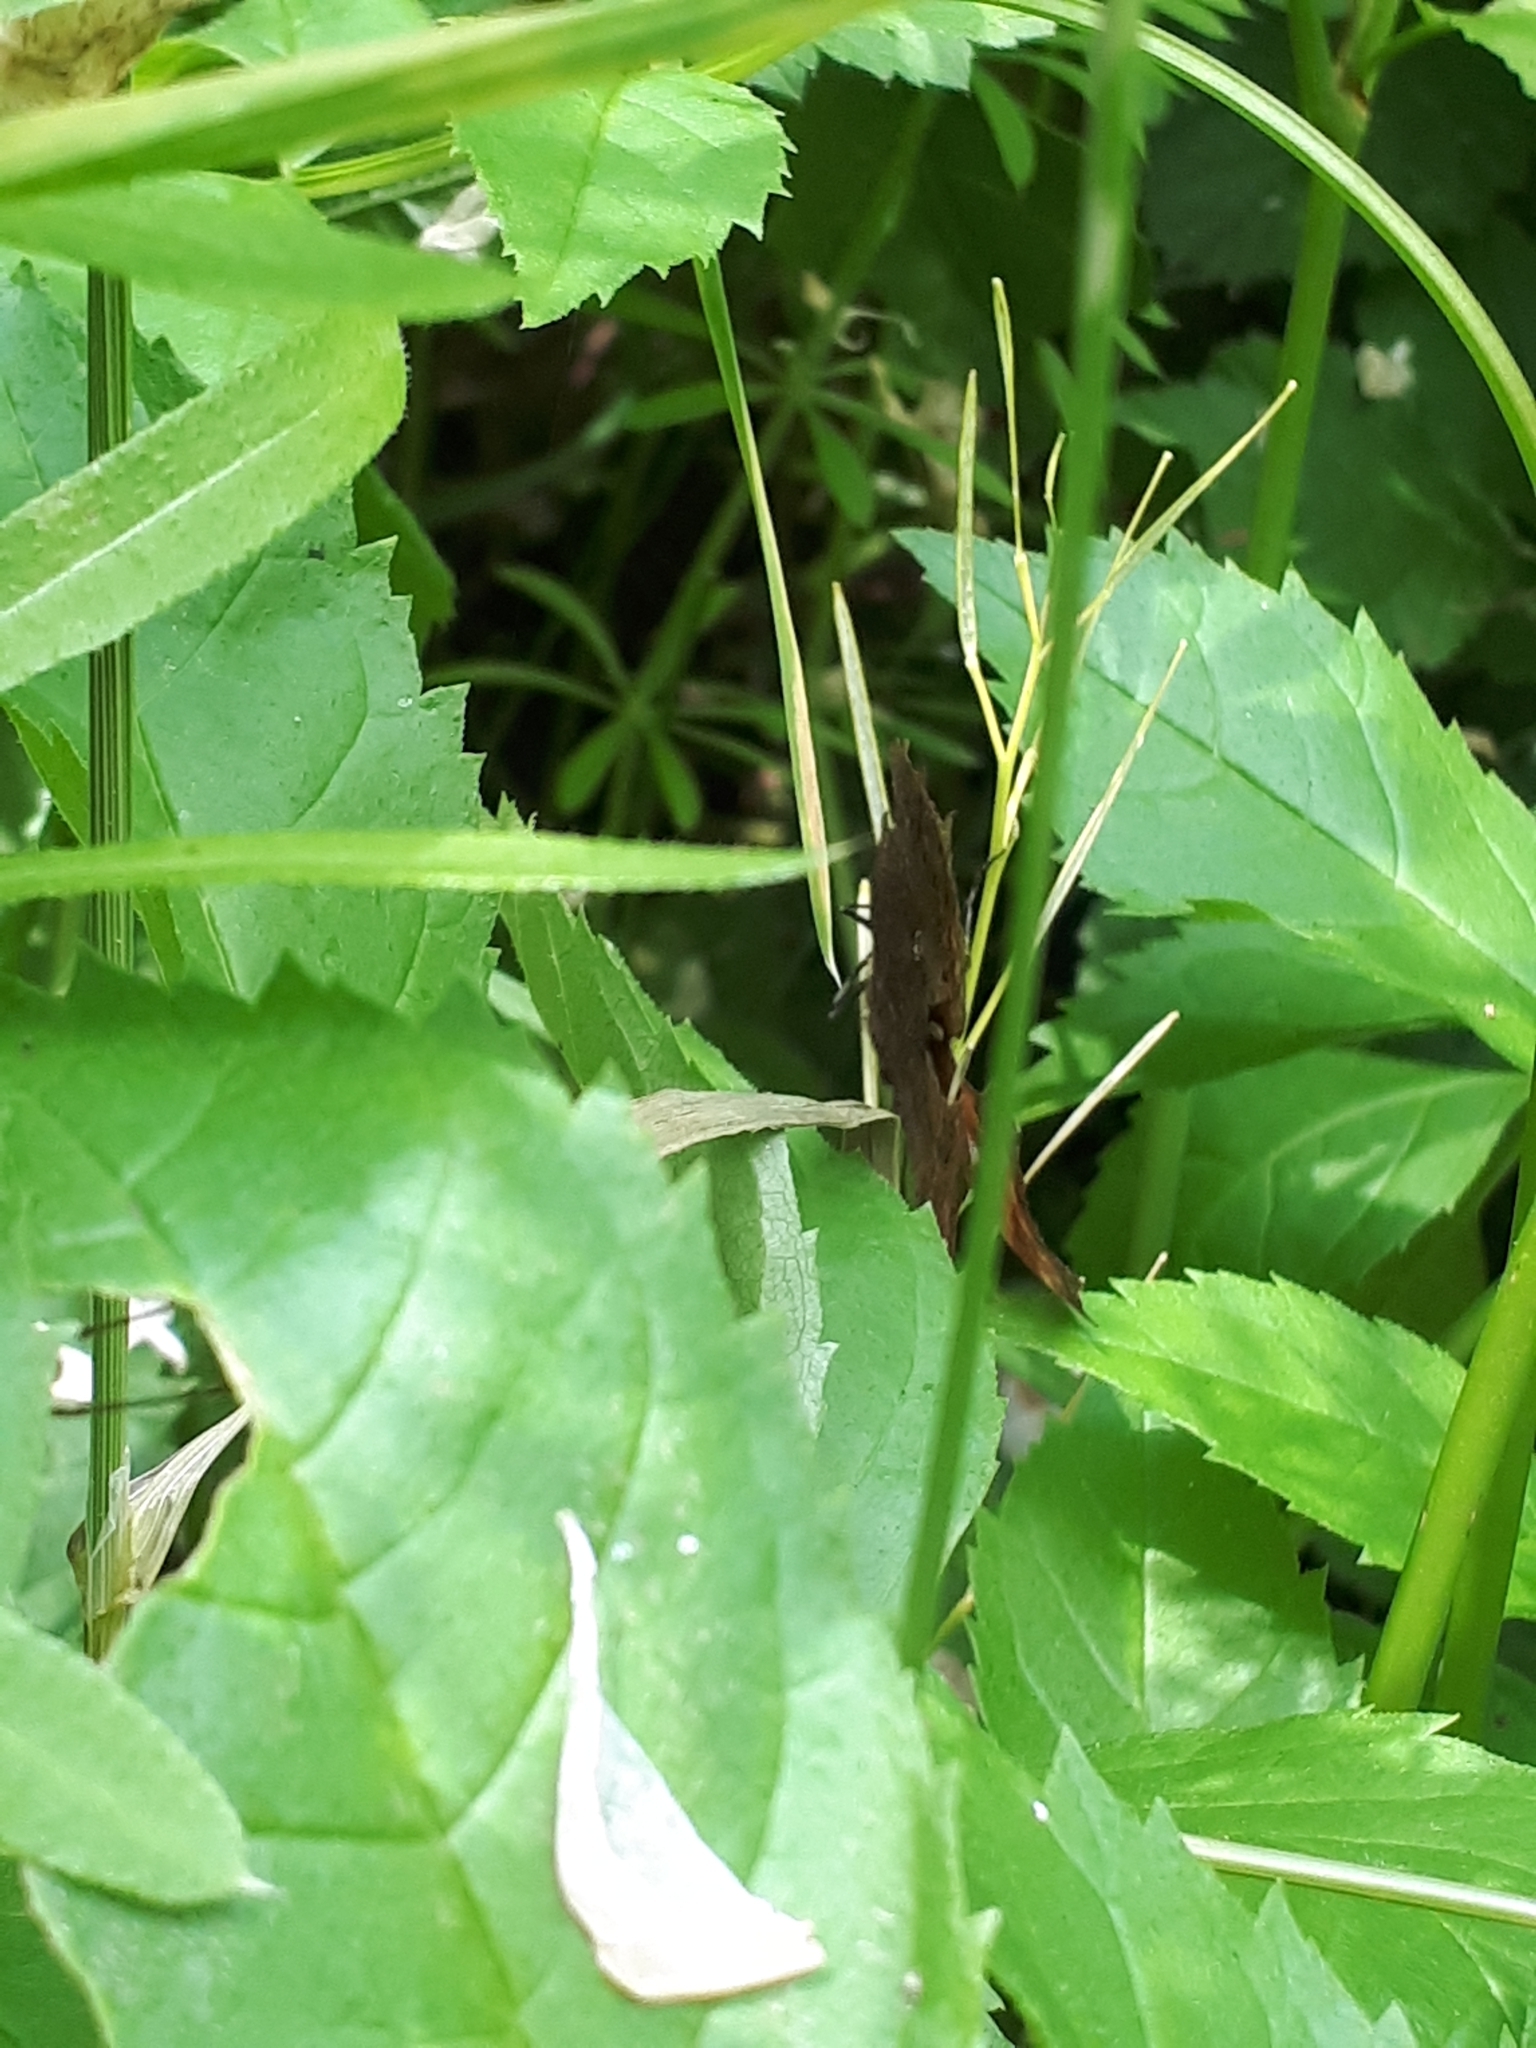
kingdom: Animalia
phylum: Arthropoda
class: Insecta
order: Lepidoptera
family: Nymphalidae
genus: Polygonia
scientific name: Polygonia c-album
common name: Comma
